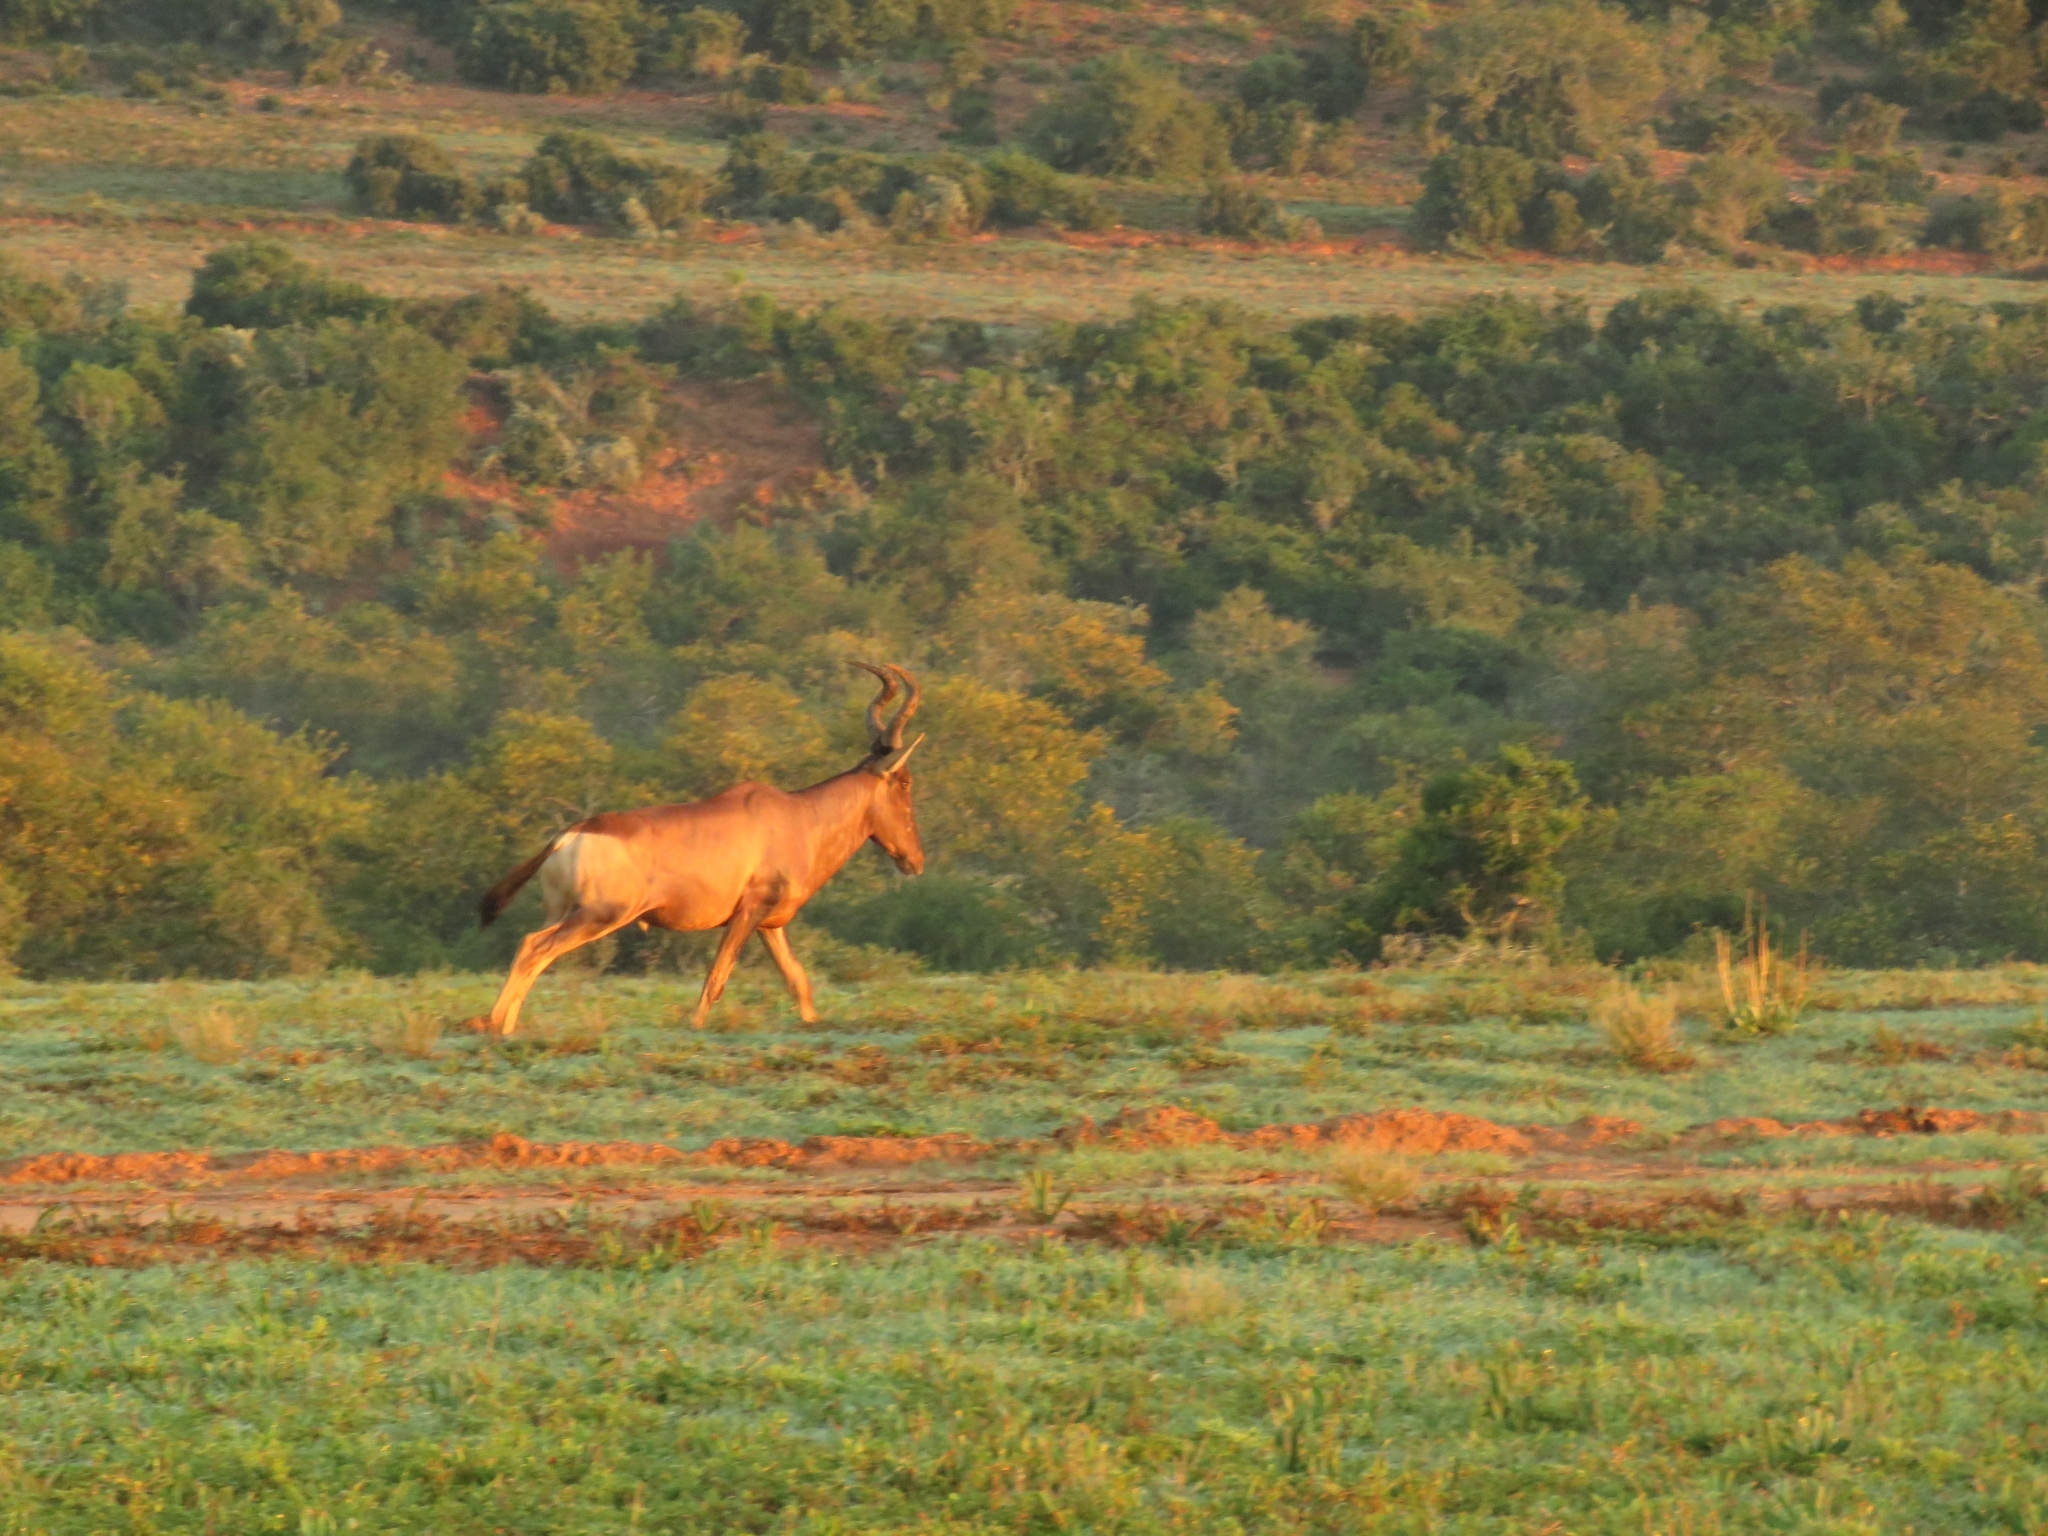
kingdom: Animalia
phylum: Chordata
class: Mammalia
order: Artiodactyla
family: Bovidae
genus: Alcelaphus
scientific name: Alcelaphus caama
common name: Red hartebeest
